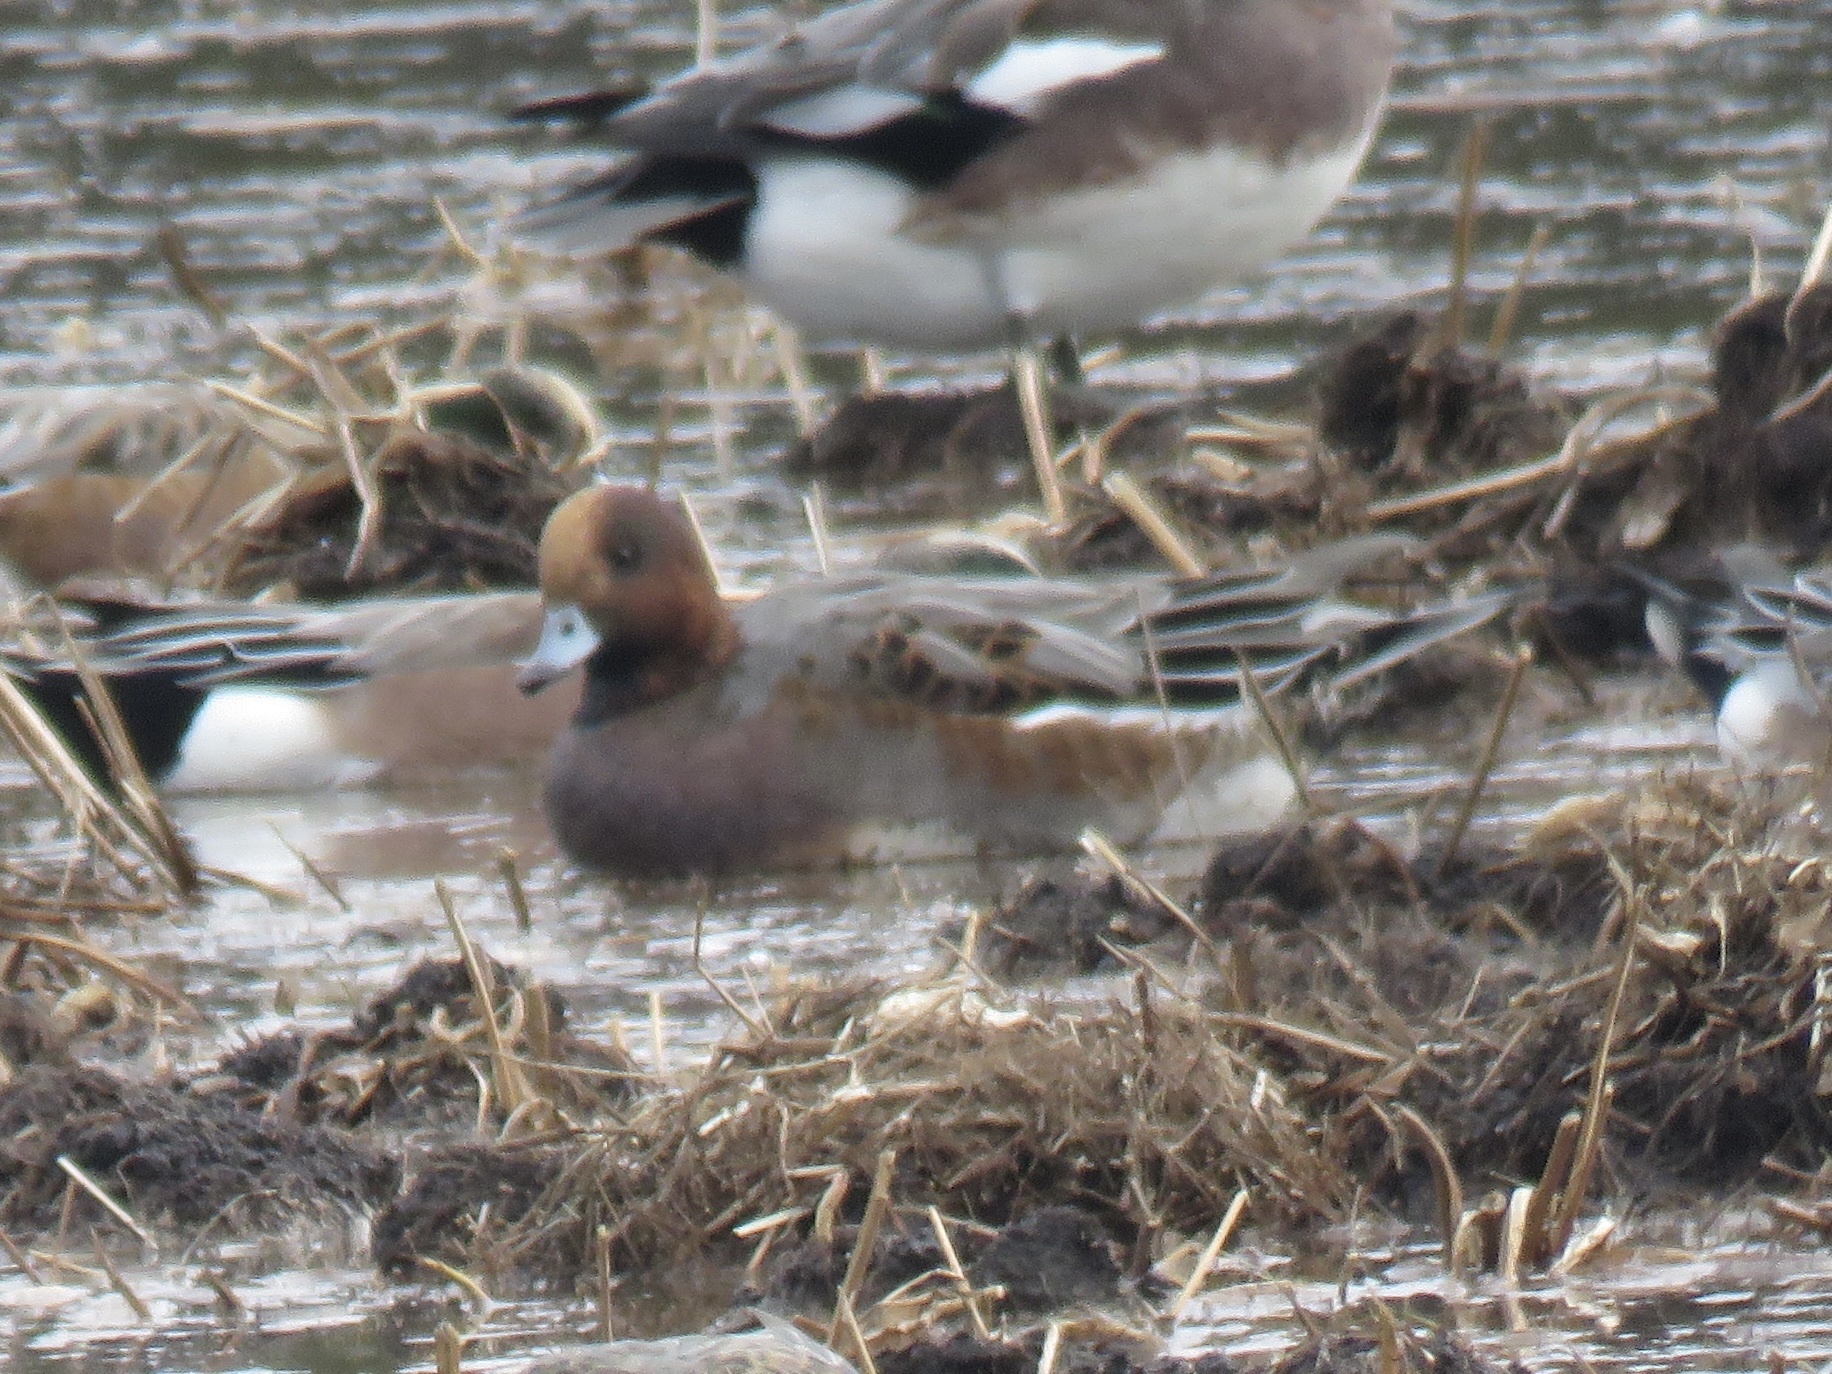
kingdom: Animalia
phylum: Chordata
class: Aves
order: Anseriformes
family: Anatidae
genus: Mareca
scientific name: Mareca penelope
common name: Eurasian wigeon
